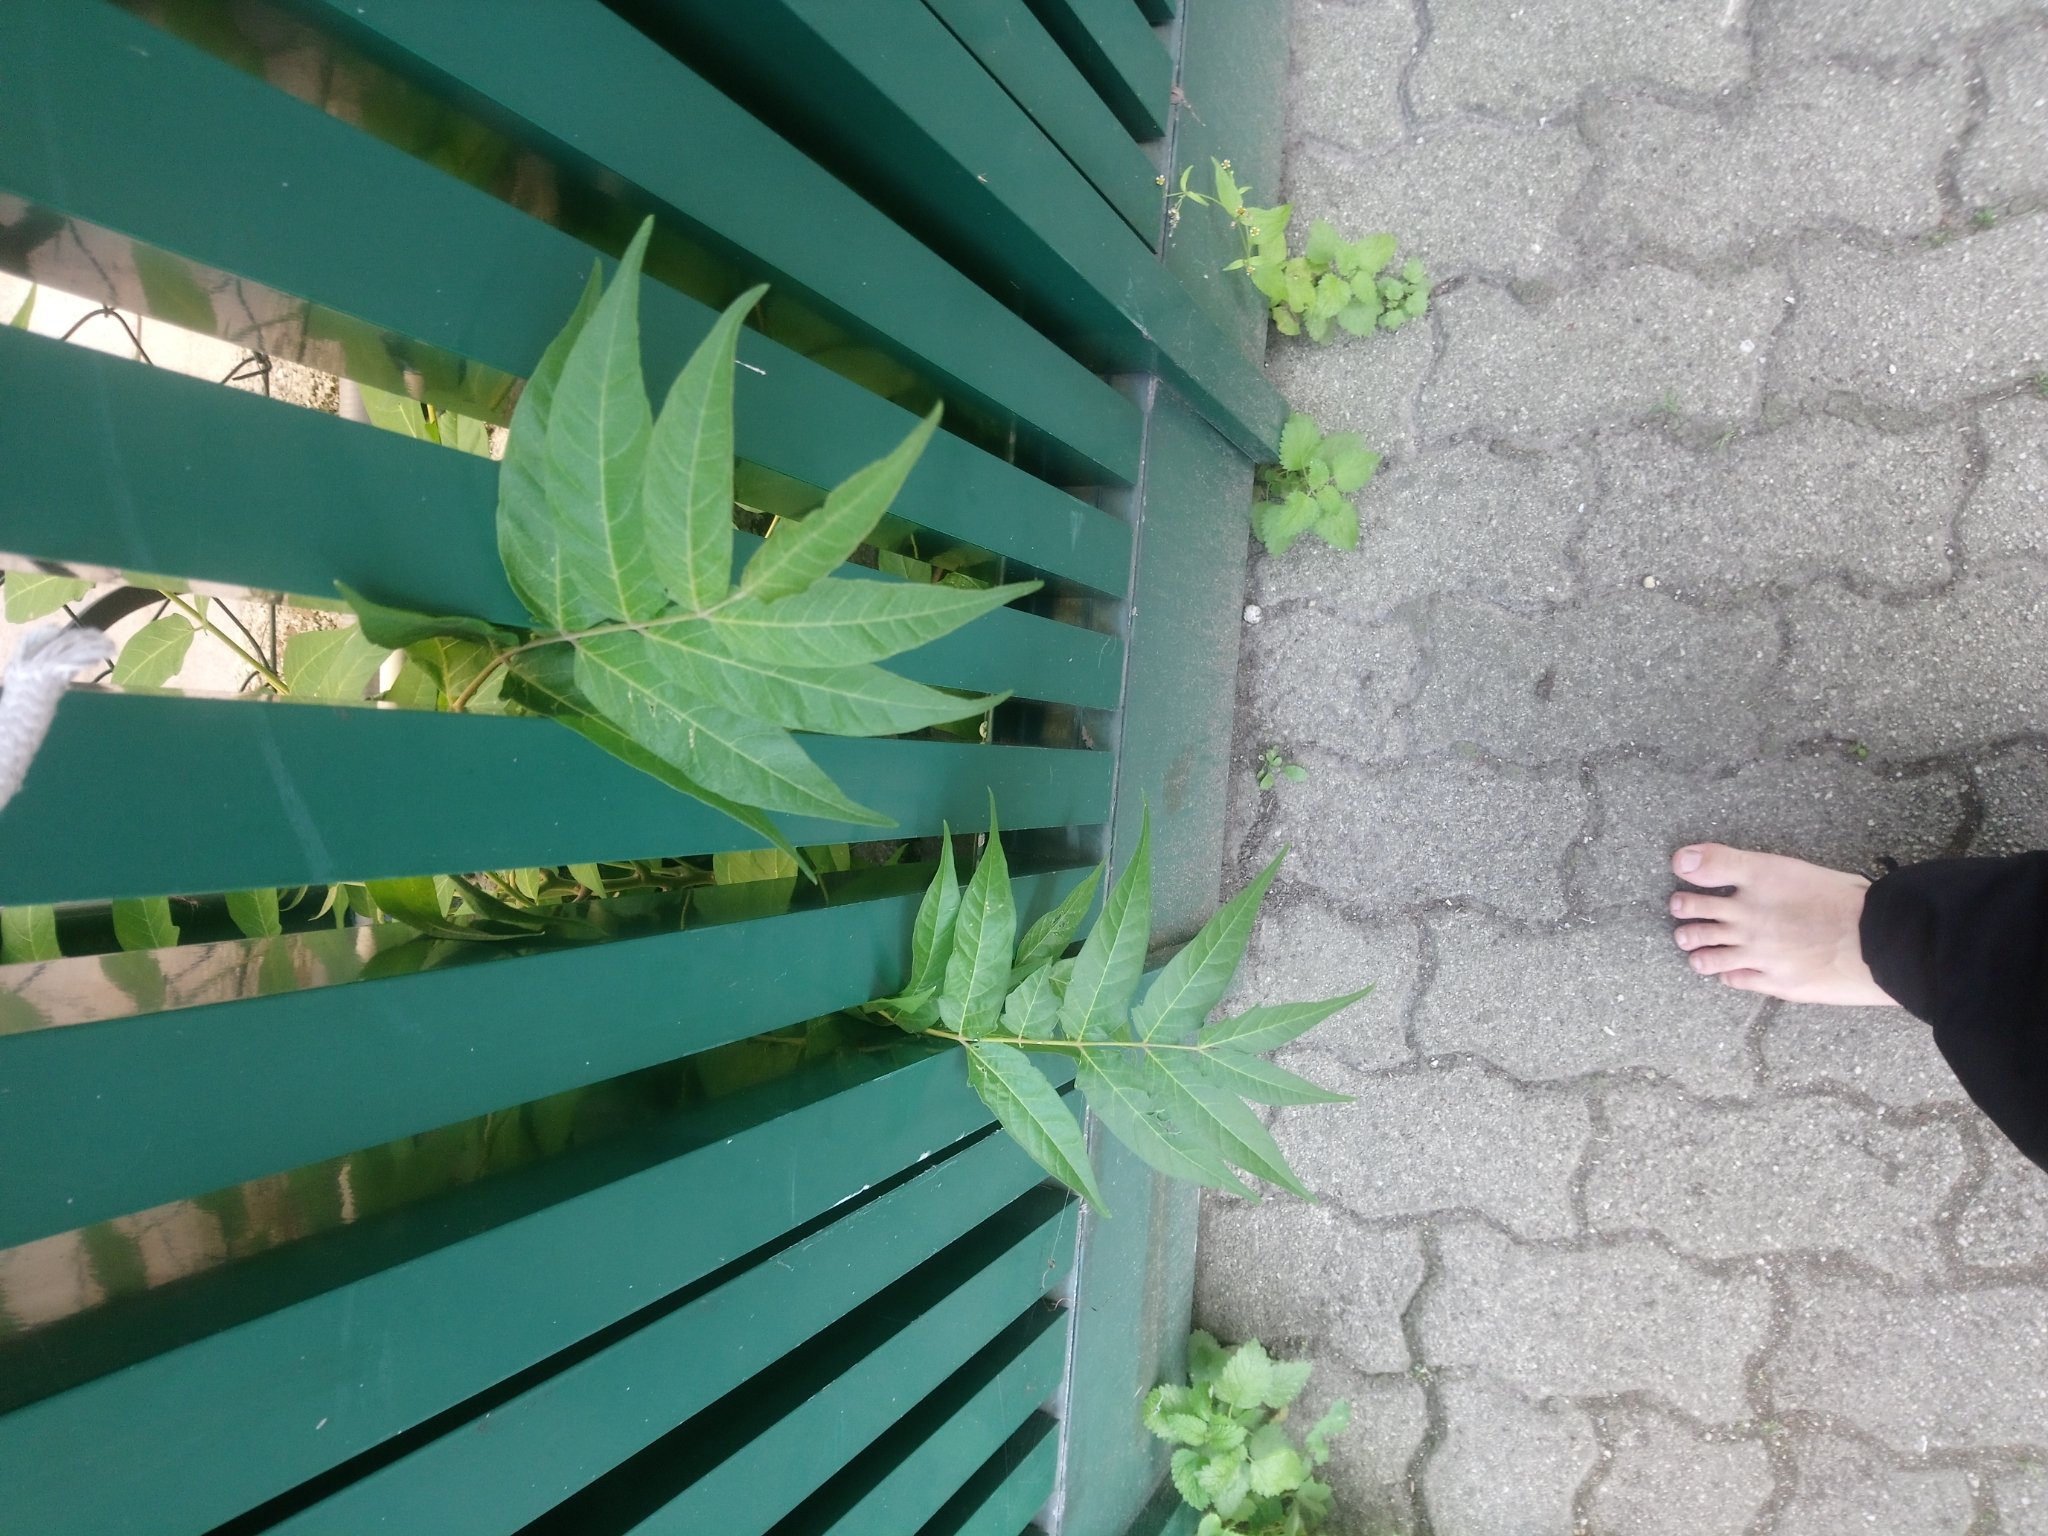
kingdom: Plantae
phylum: Tracheophyta
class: Magnoliopsida
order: Sapindales
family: Simaroubaceae
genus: Ailanthus
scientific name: Ailanthus altissima
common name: Tree-of-heaven
